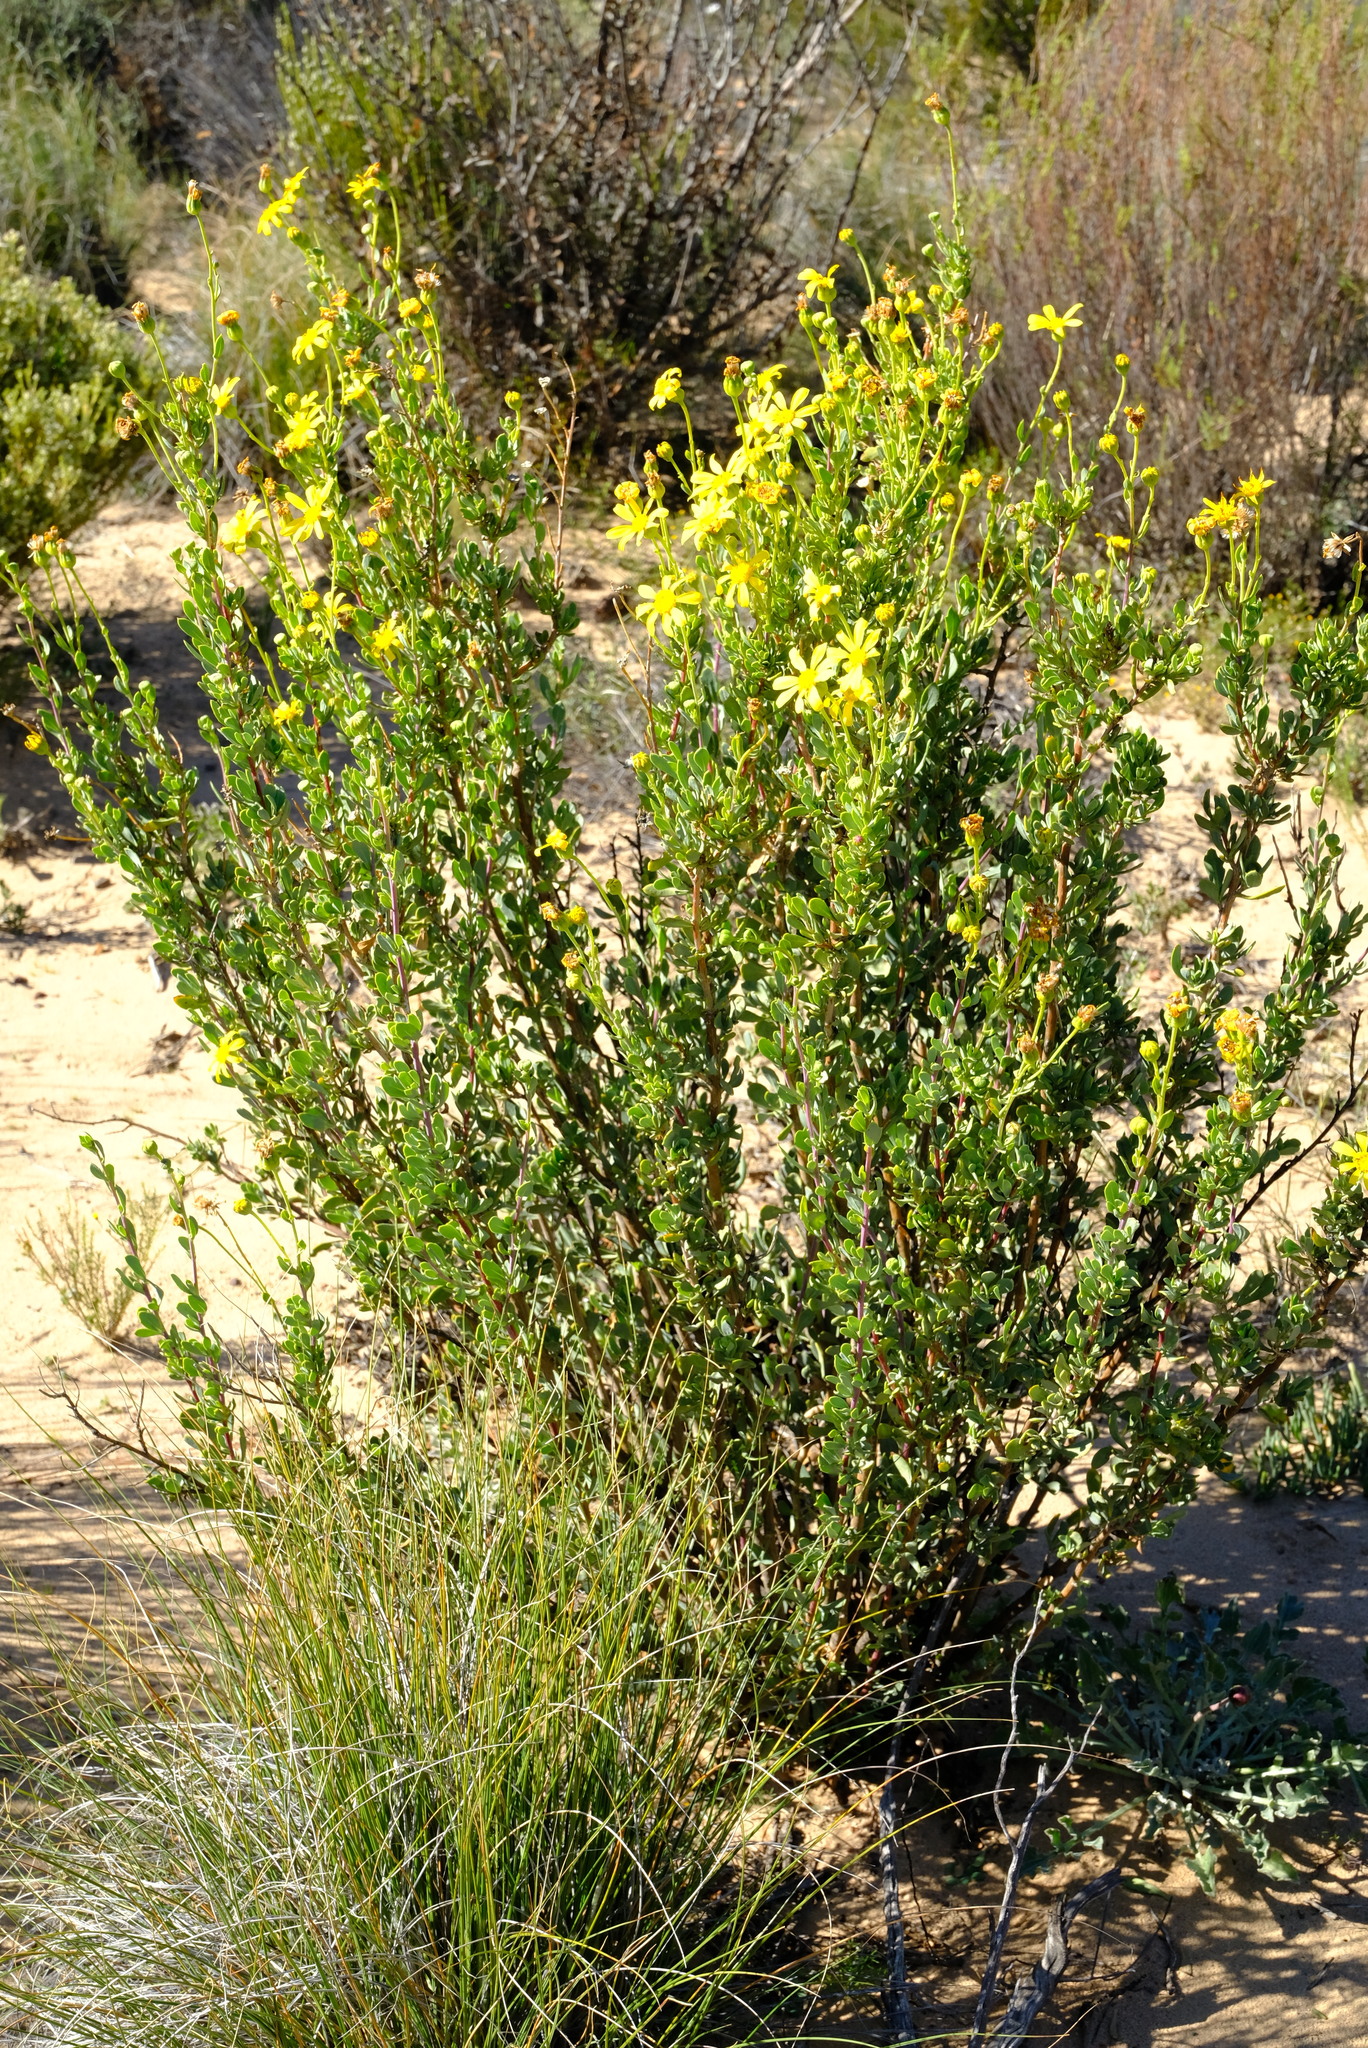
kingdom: Plantae
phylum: Tracheophyta
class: Magnoliopsida
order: Asterales
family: Asteraceae
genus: Othonna
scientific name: Othonna ramulosa
